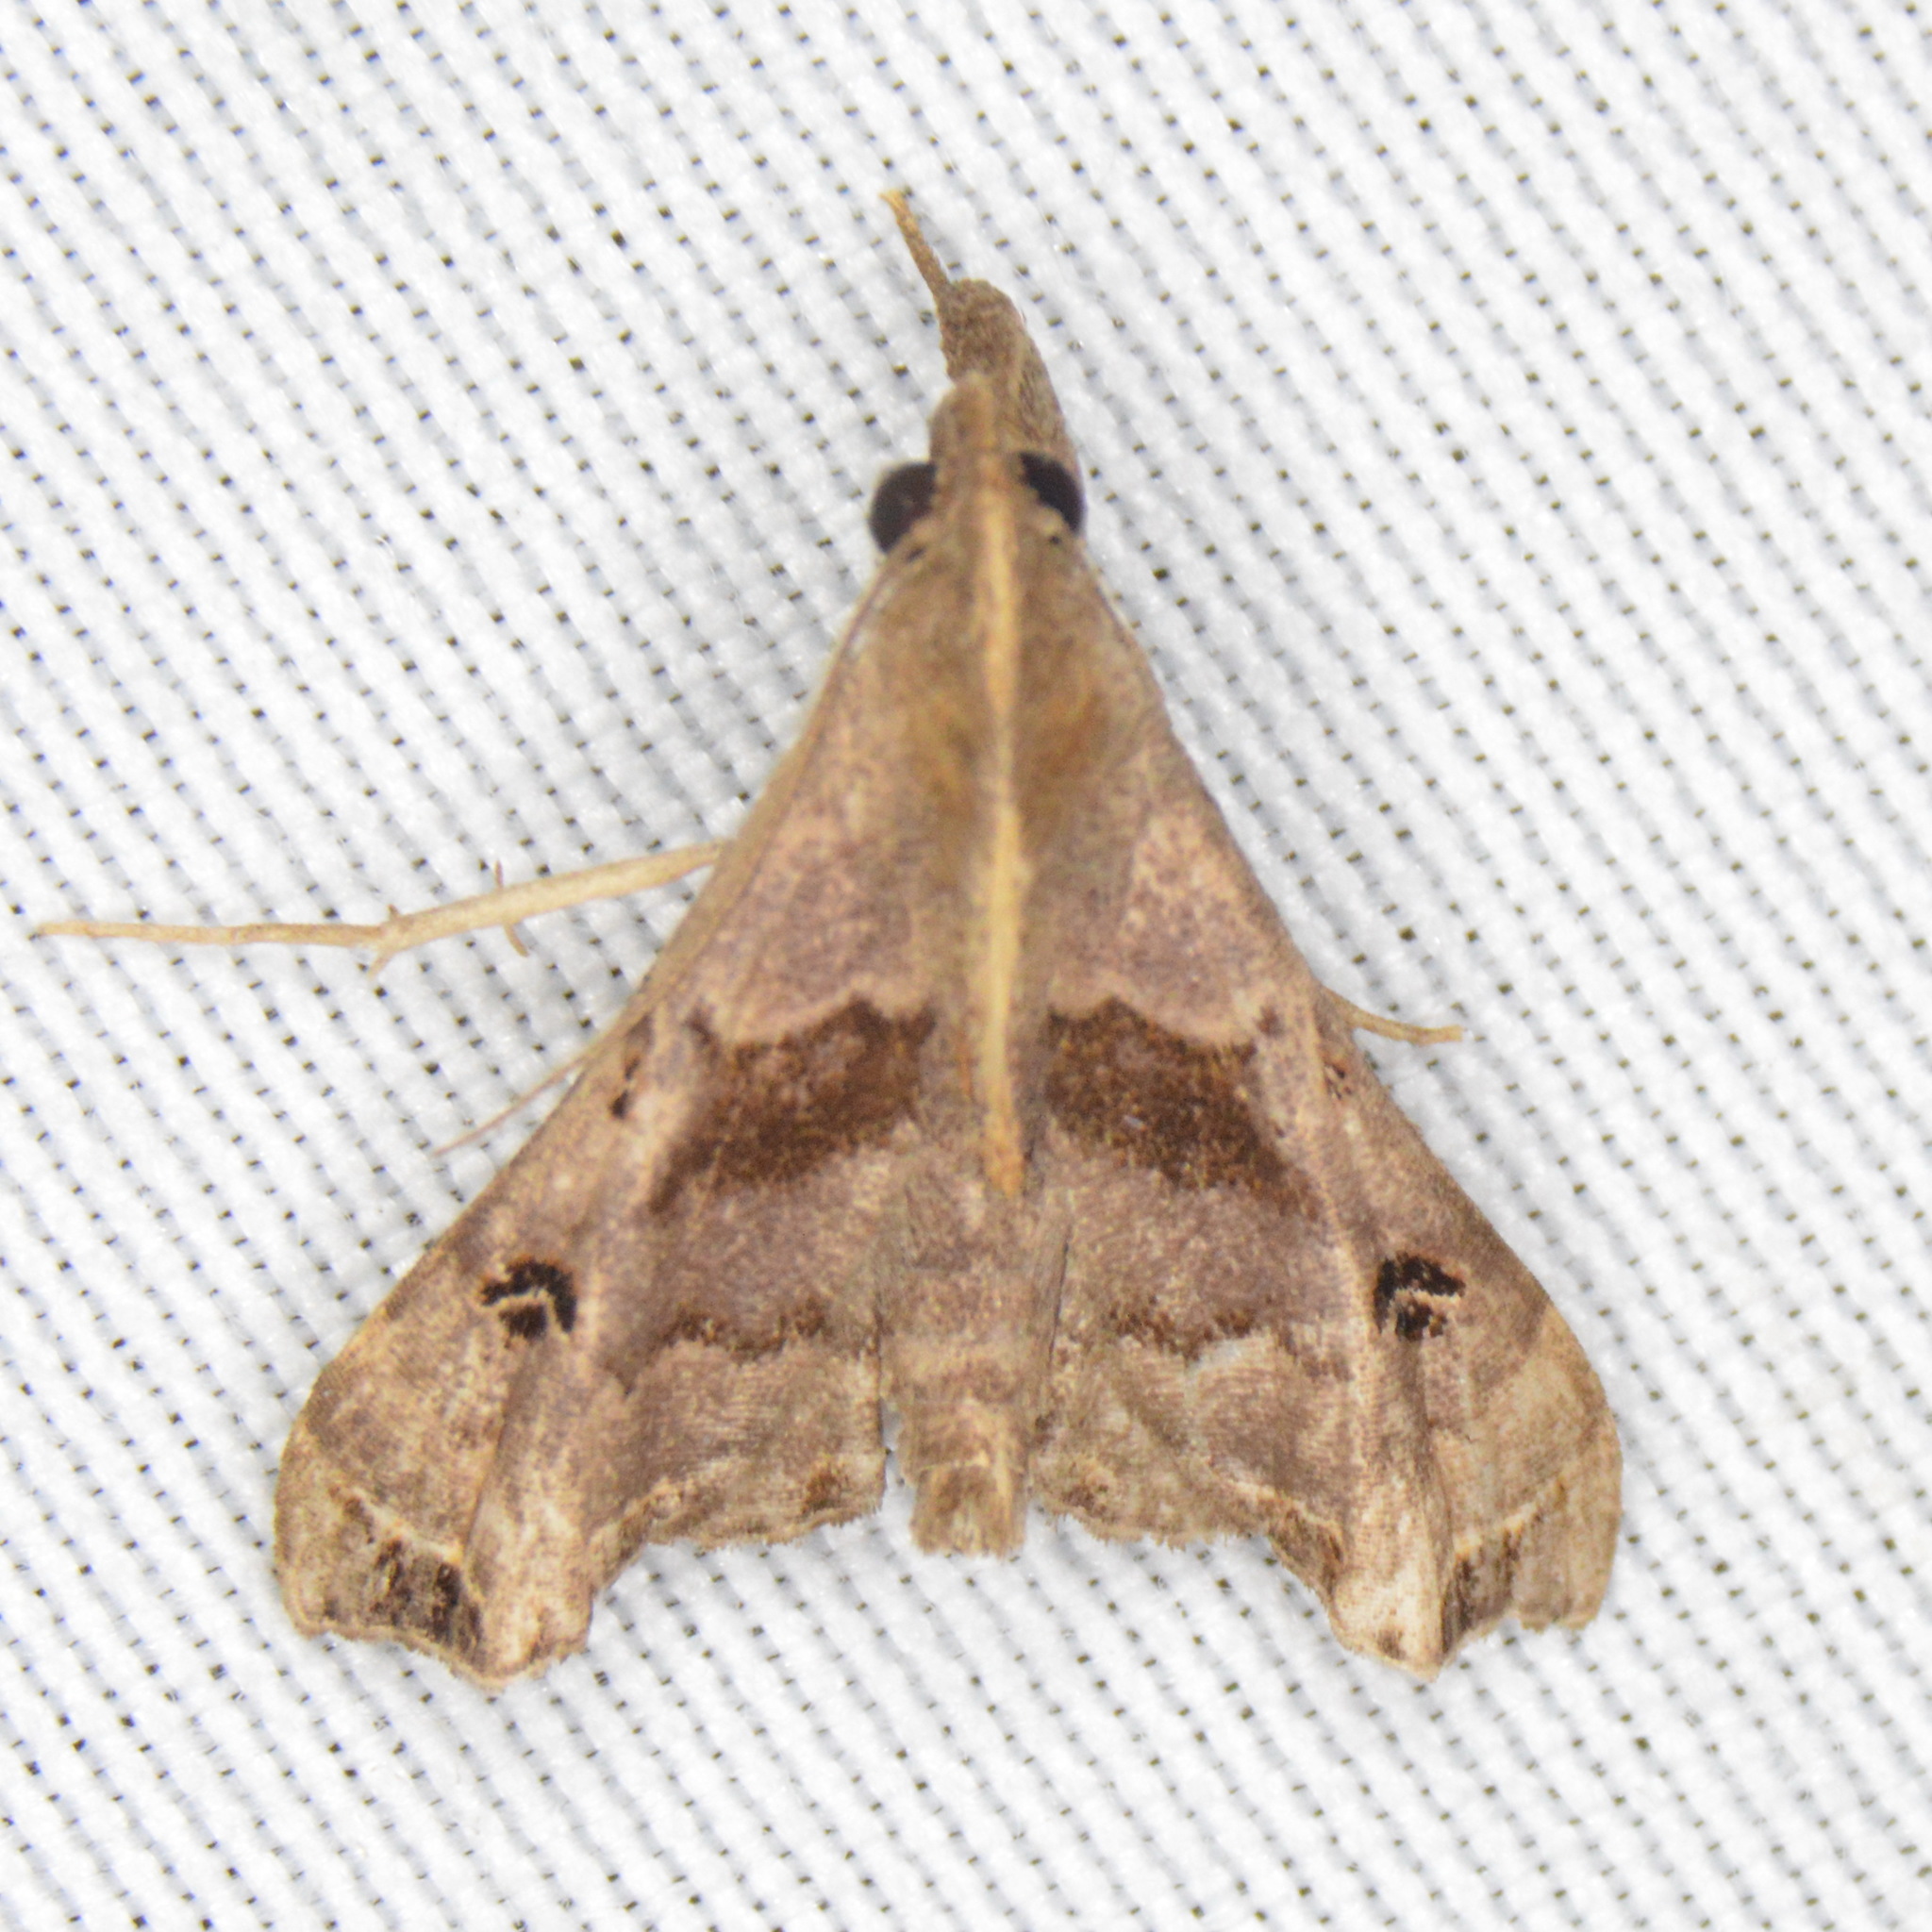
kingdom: Animalia
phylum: Arthropoda
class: Insecta
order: Lepidoptera
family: Erebidae
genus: Palthis
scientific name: Palthis asopialis
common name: Faint-spotted palthis moth
